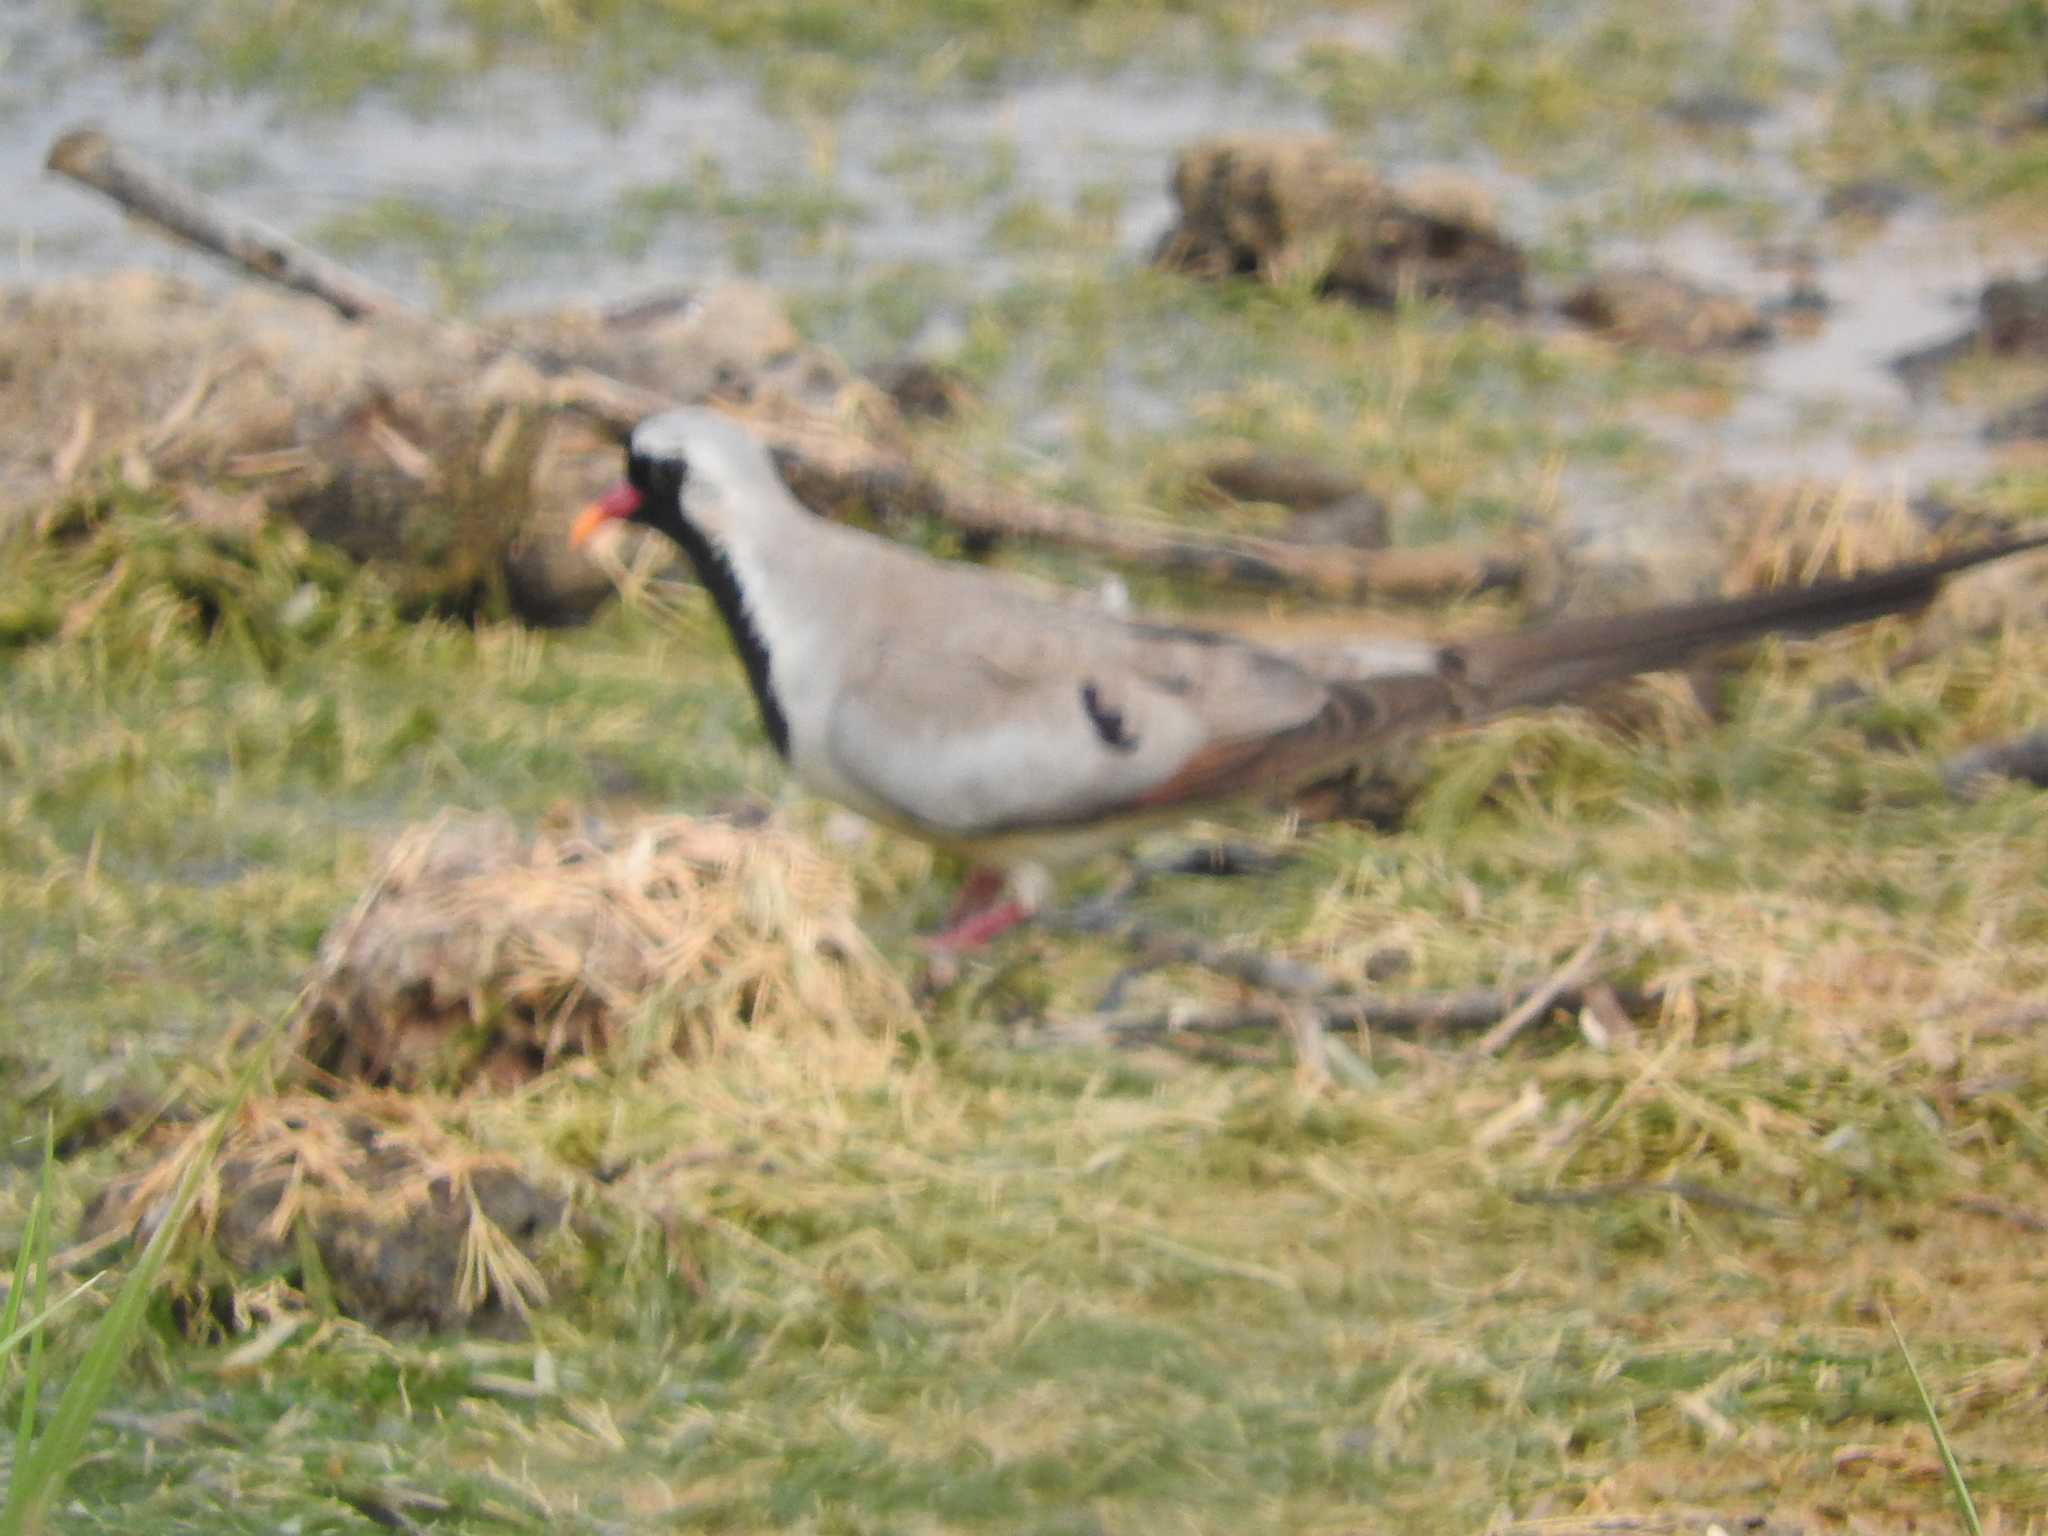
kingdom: Animalia
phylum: Chordata
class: Aves
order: Columbiformes
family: Columbidae
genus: Oena
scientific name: Oena capensis
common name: Namaqua dove
